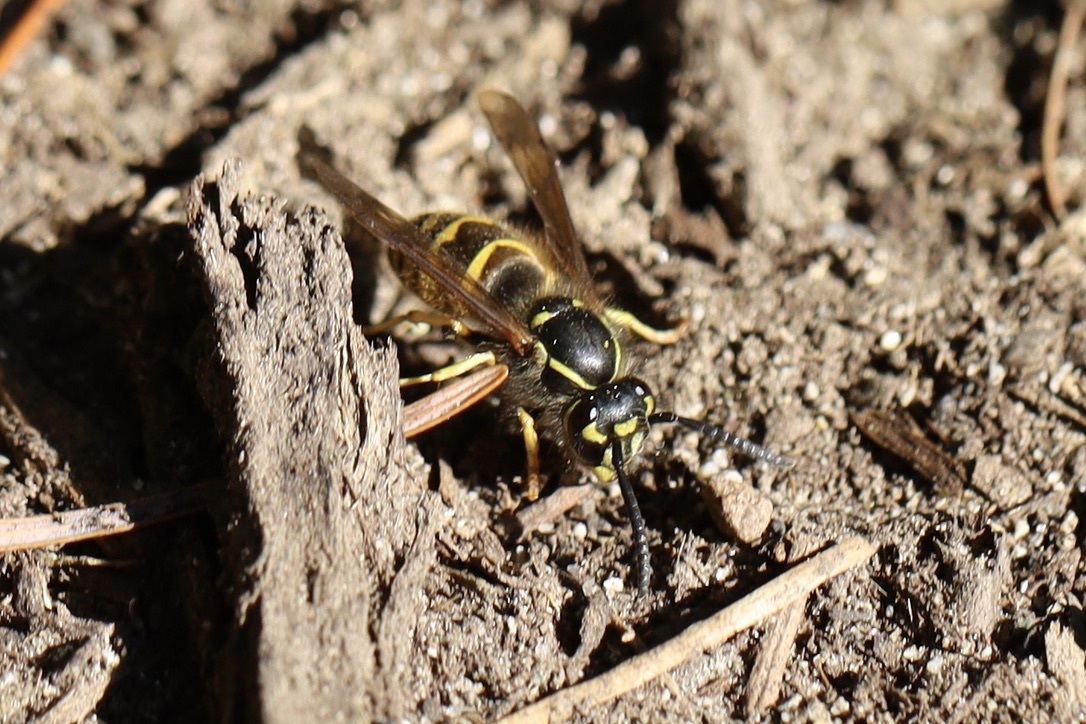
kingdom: Animalia
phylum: Arthropoda
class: Insecta
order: Hymenoptera
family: Vespidae
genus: Vespula
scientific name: Vespula alascensis
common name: Alaska yellowjacket
